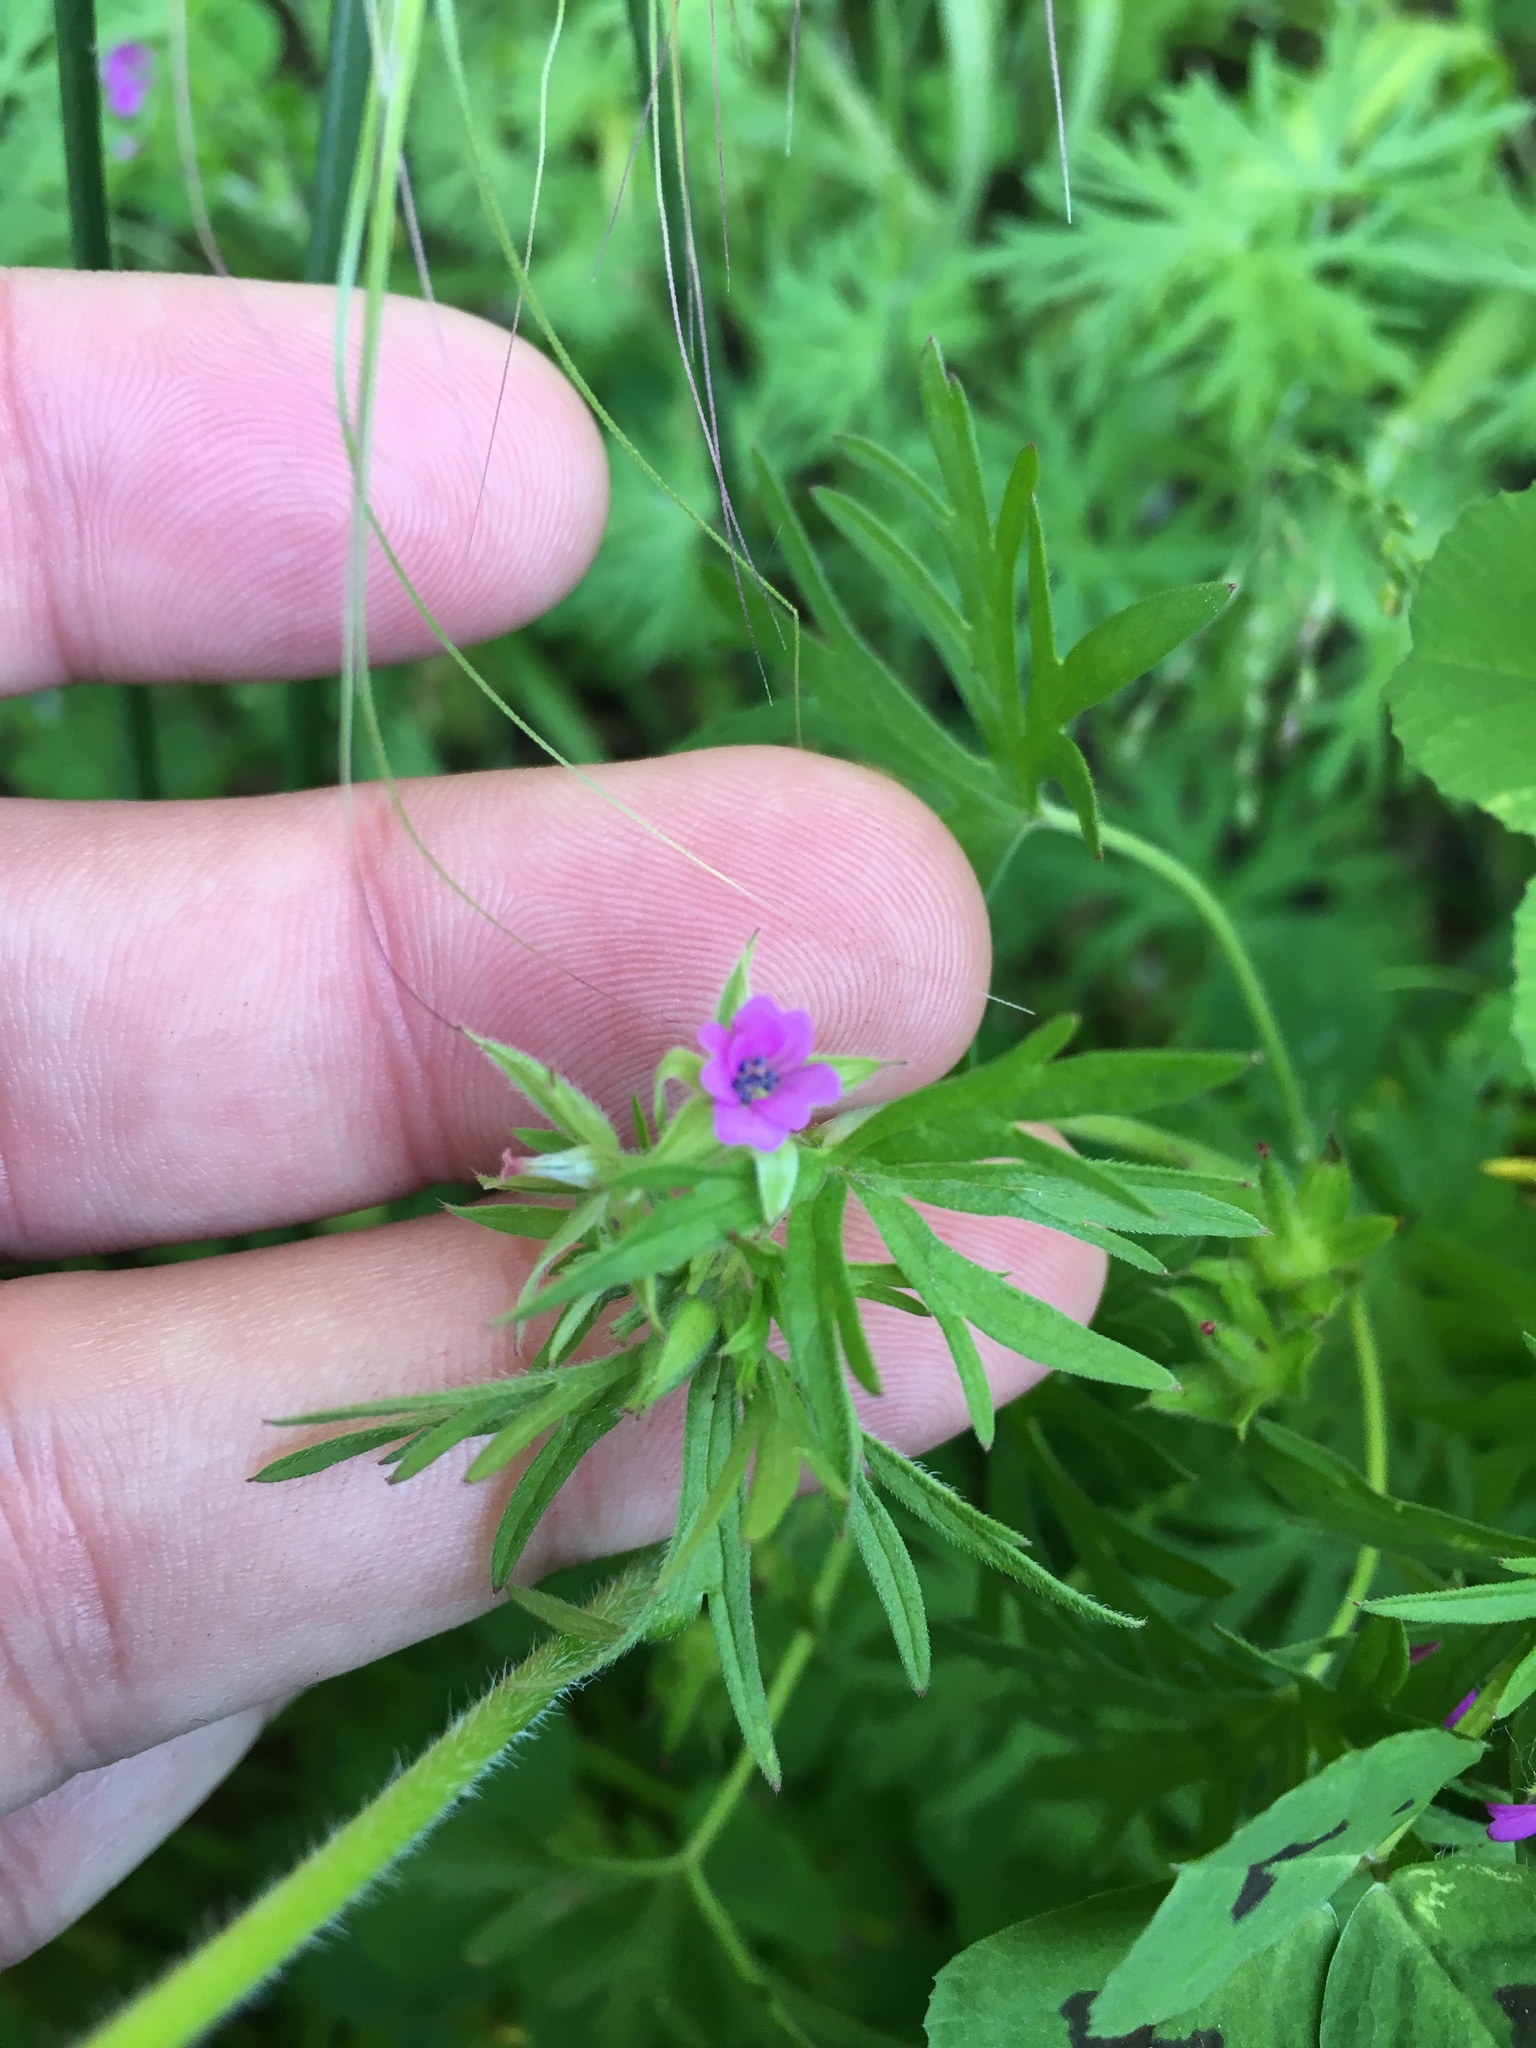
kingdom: Plantae
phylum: Tracheophyta
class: Magnoliopsida
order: Geraniales
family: Geraniaceae
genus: Geranium
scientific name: Geranium dissectum
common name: Cut-leaved crane's-bill
